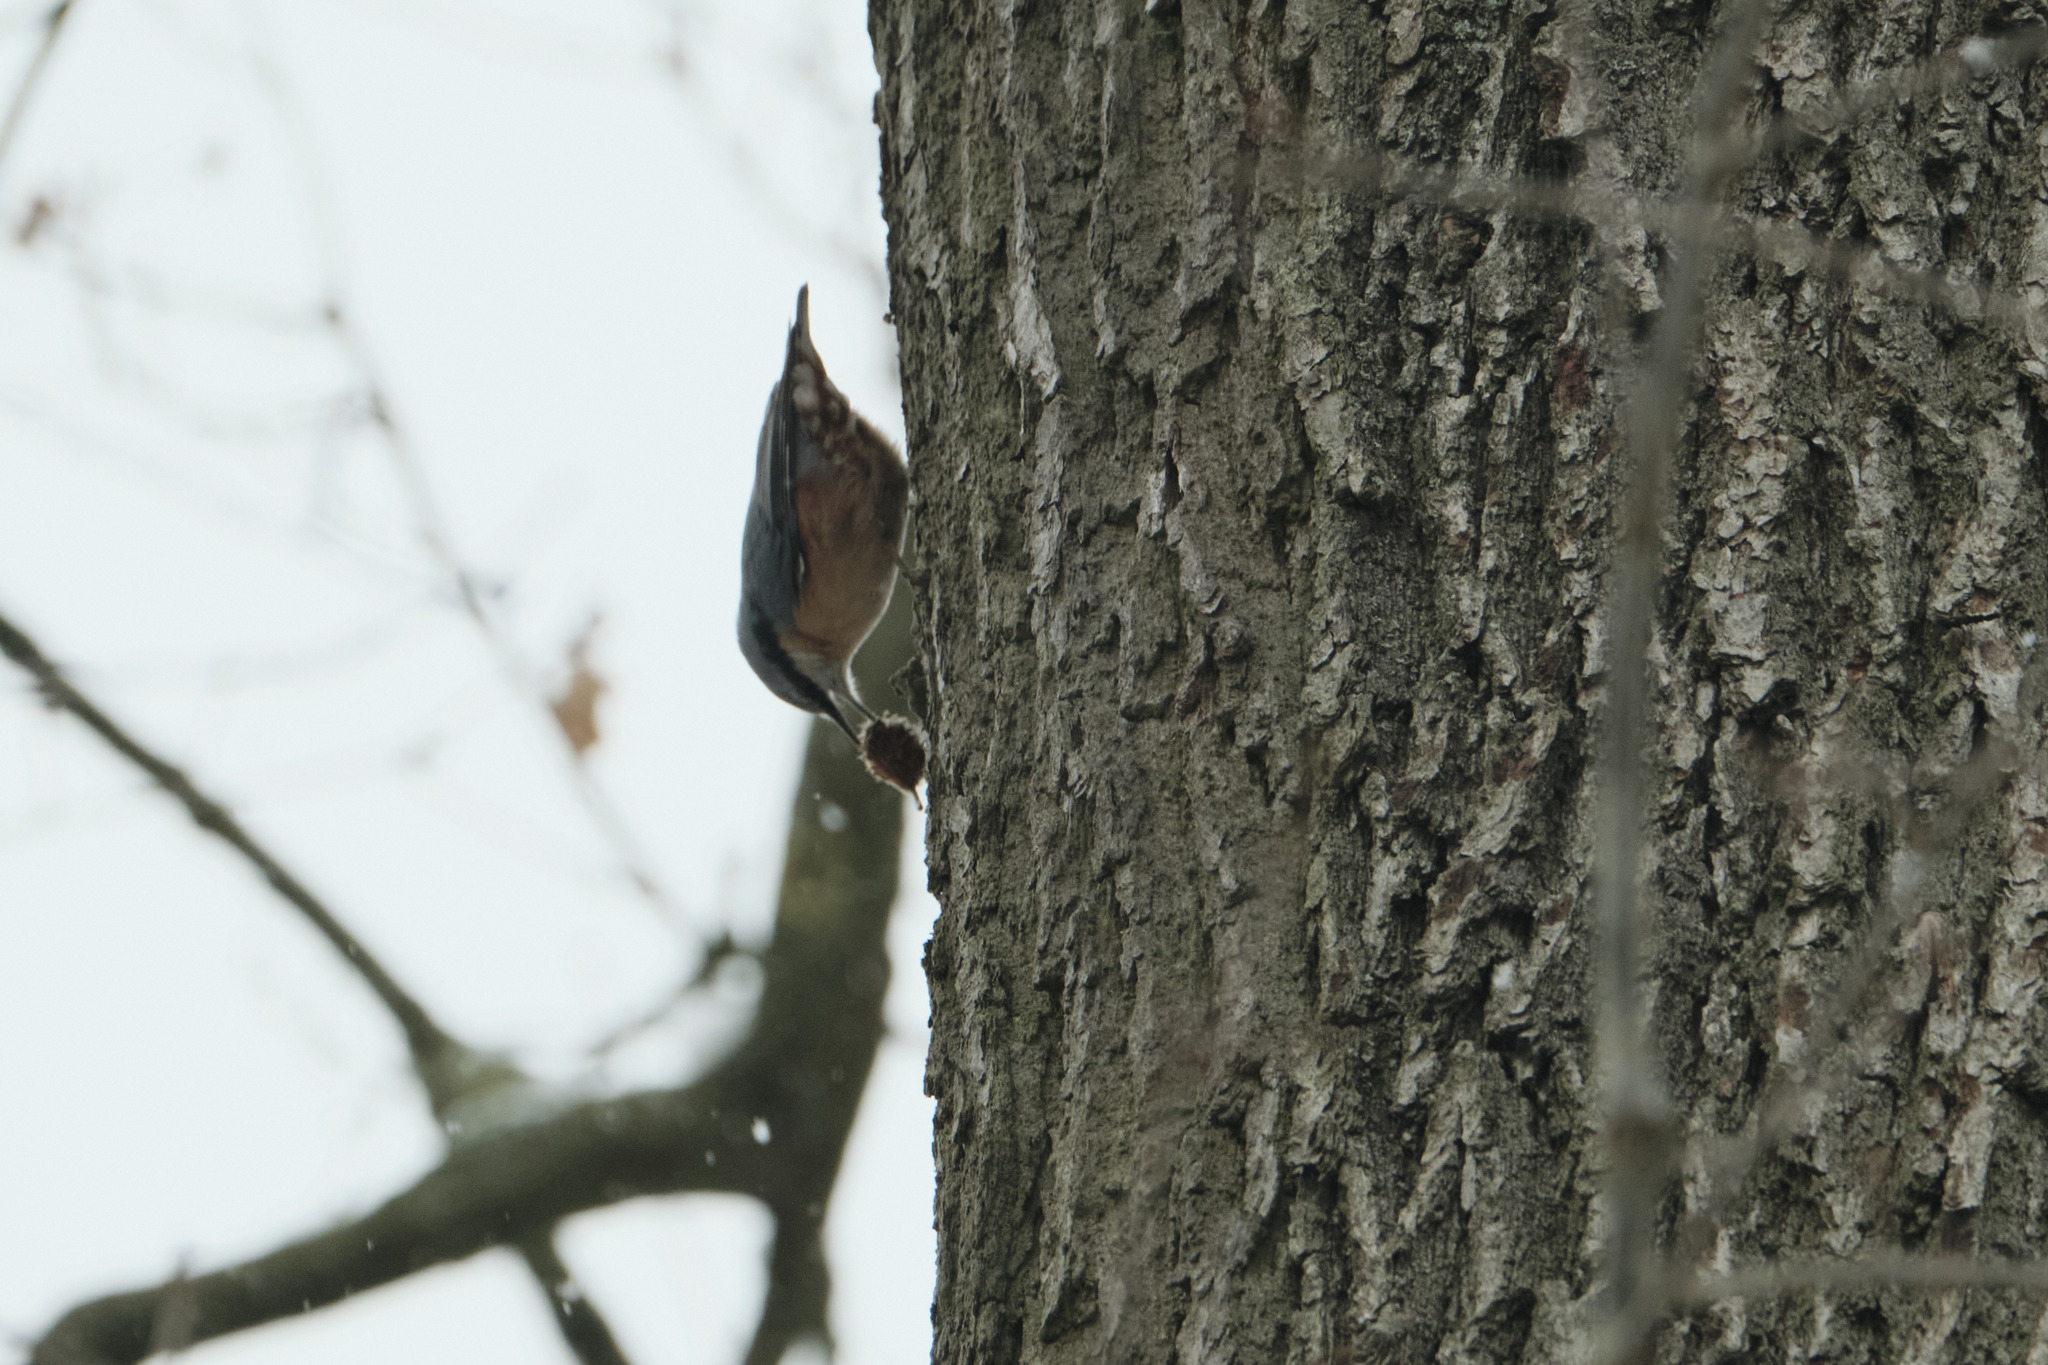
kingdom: Animalia
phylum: Chordata
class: Aves
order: Passeriformes
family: Sittidae
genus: Sitta
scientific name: Sitta europaea
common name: Eurasian nuthatch
